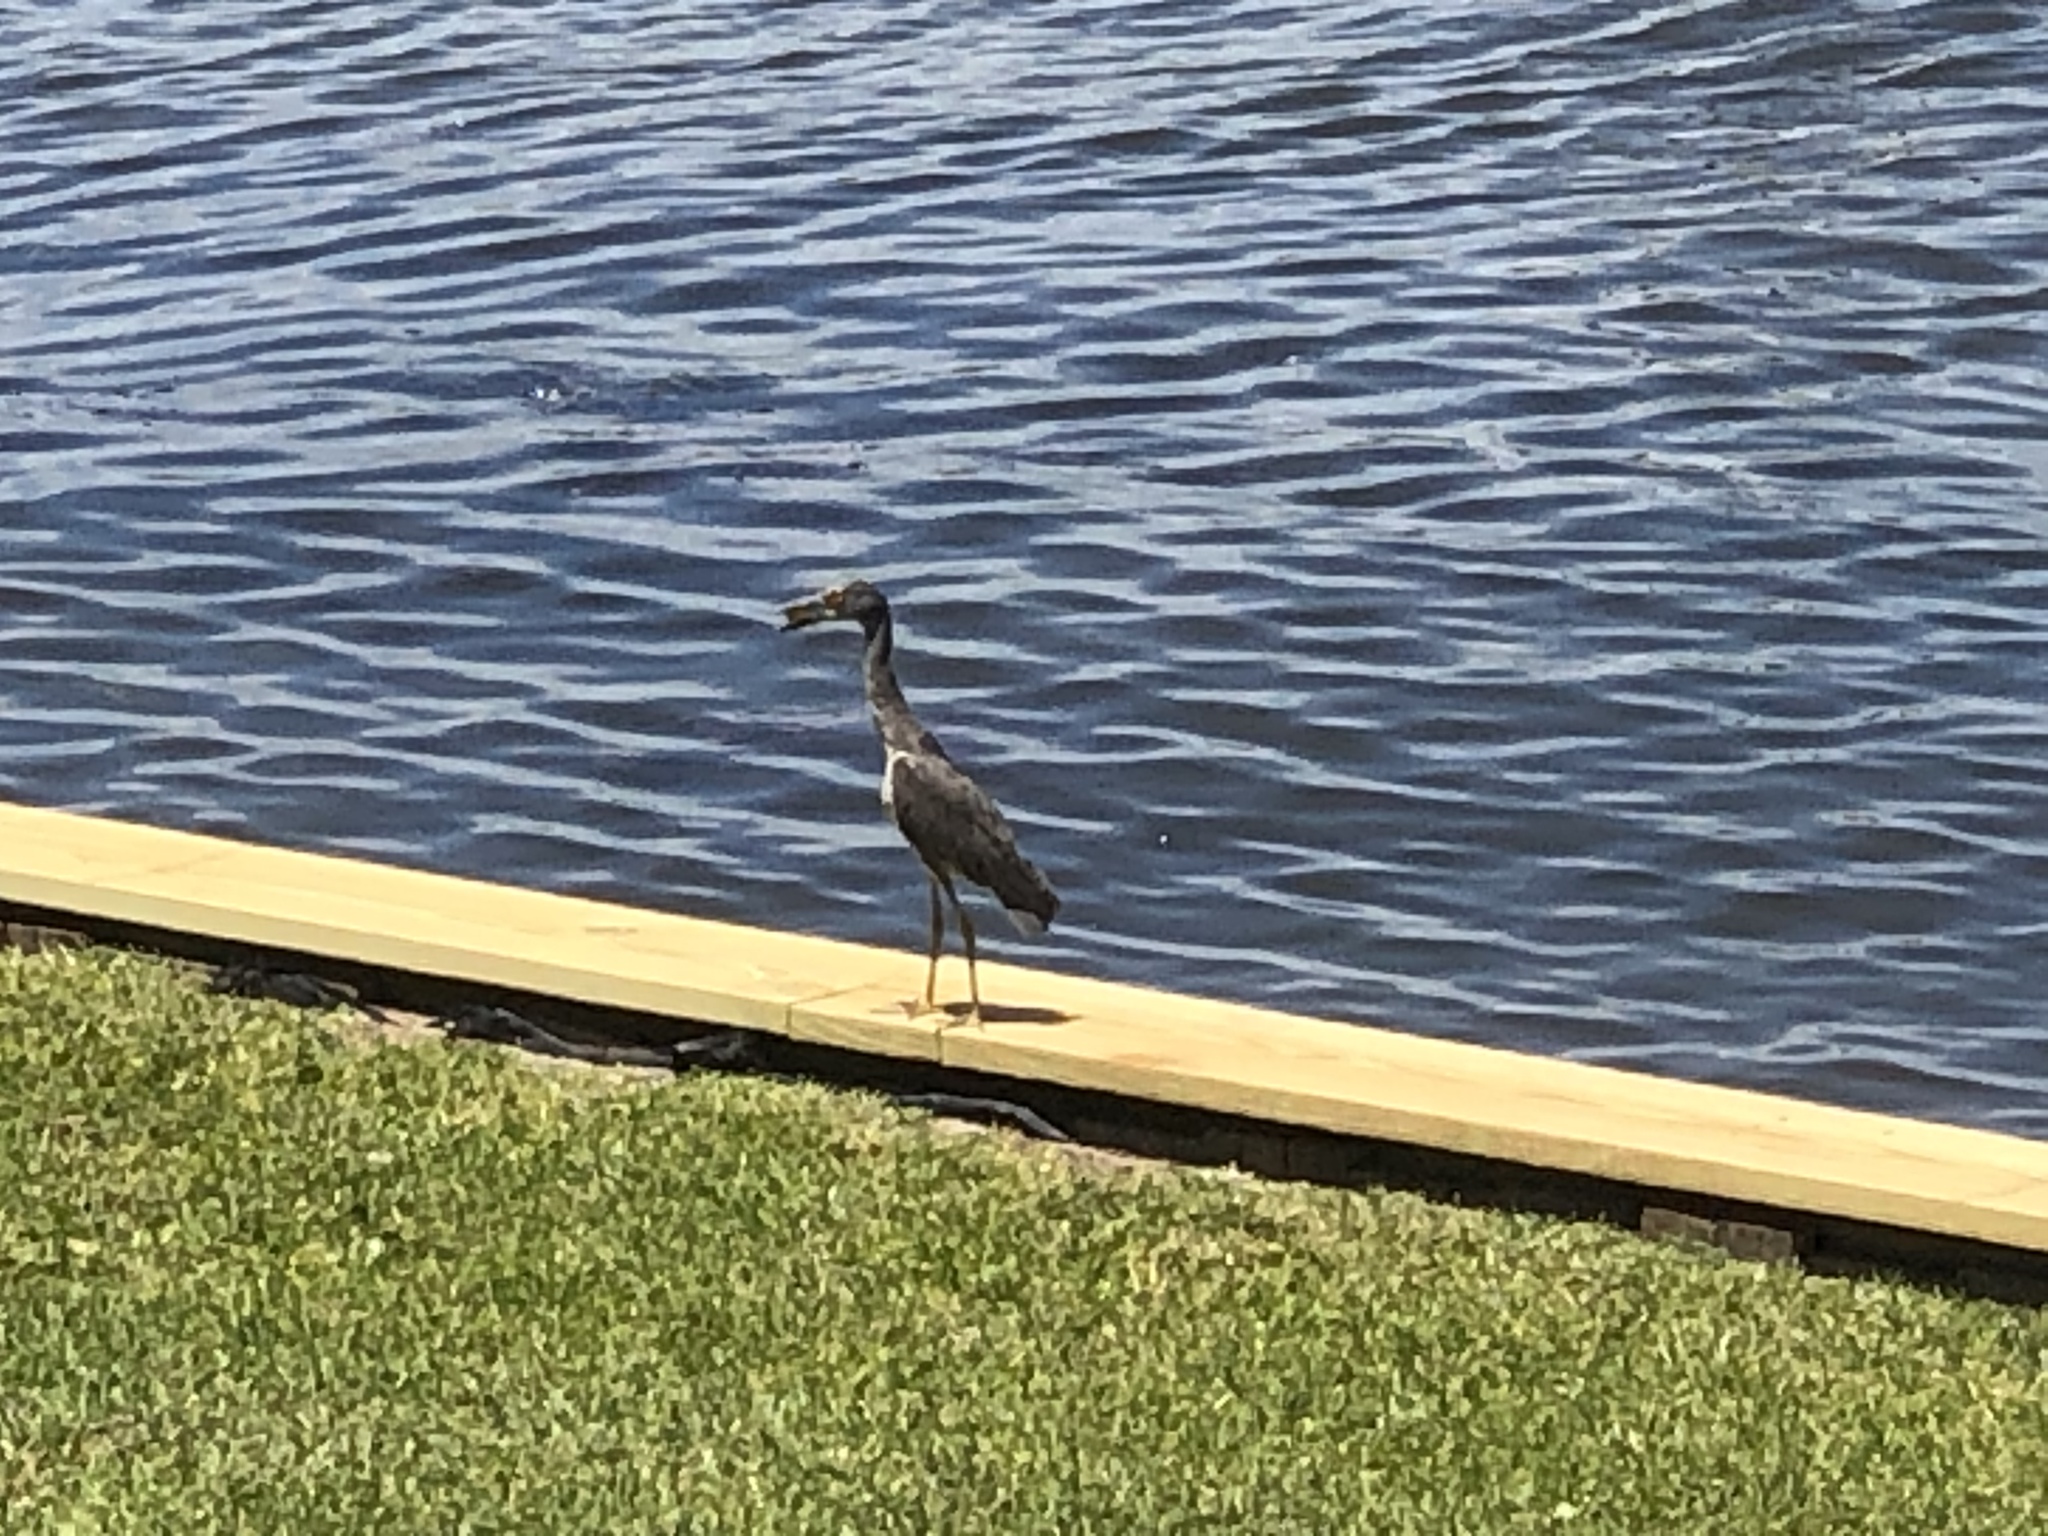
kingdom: Animalia
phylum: Chordata
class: Aves
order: Pelecaniformes
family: Ardeidae
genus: Nyctanassa
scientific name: Nyctanassa violacea
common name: Yellow-crowned night heron
